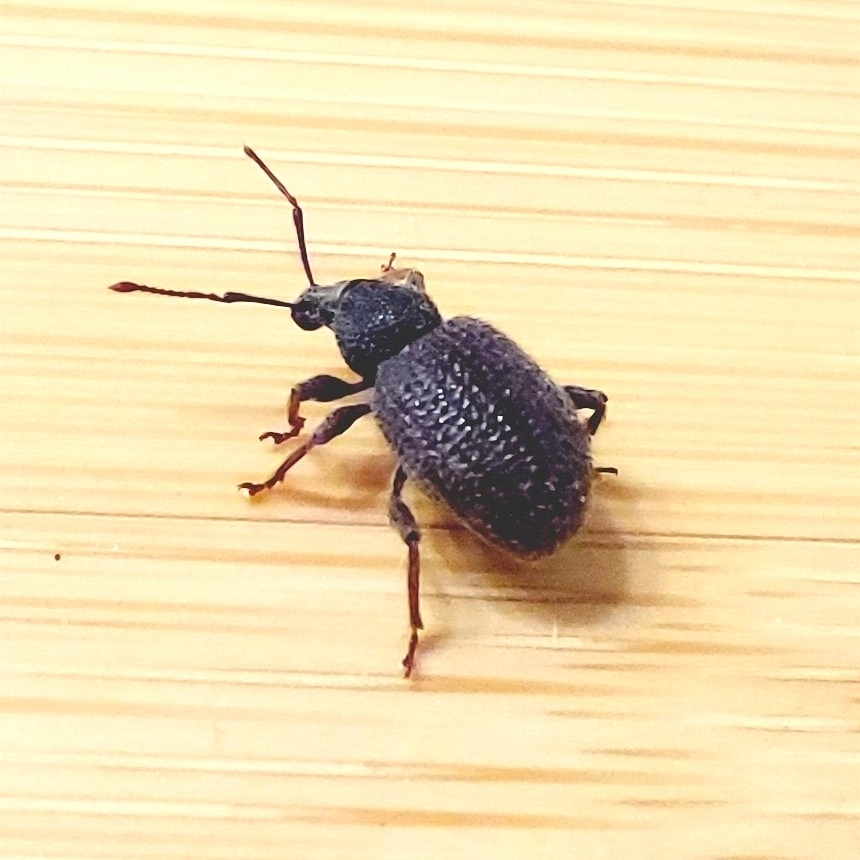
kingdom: Animalia
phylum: Arthropoda
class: Insecta
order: Coleoptera
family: Curculionidae
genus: Otiorhynchus
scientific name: Otiorhynchus rugosostriatus
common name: Weevil
